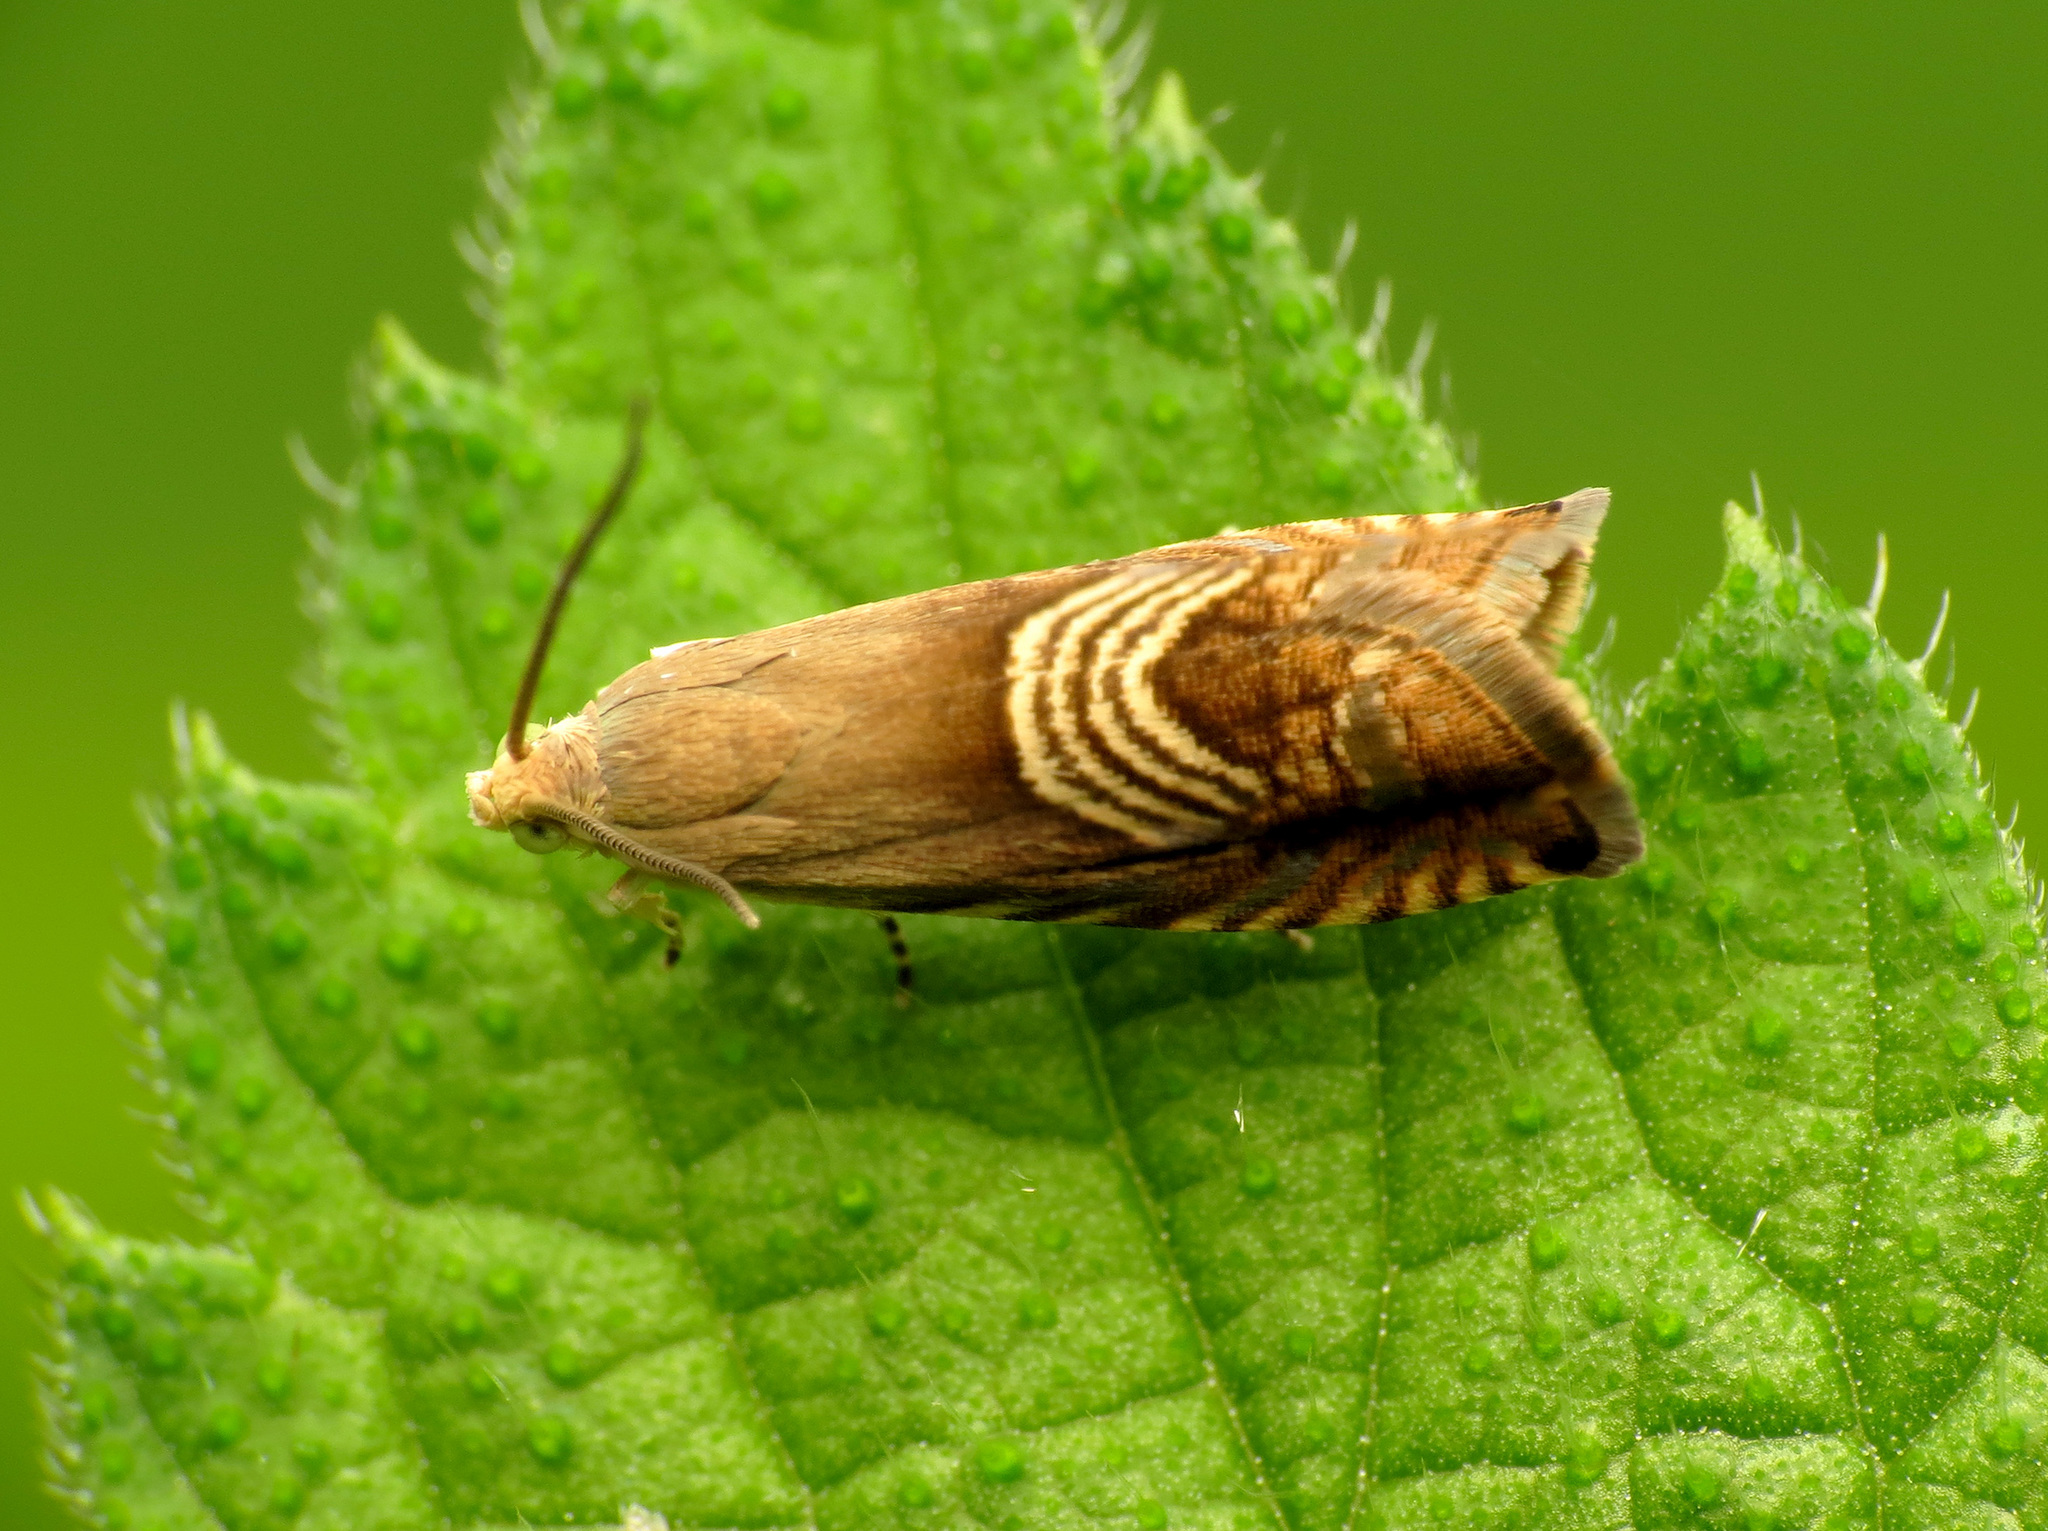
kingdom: Animalia
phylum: Arthropoda
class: Insecta
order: Lepidoptera
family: Tortricidae
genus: Grapholita
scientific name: Grapholita tristrigana
